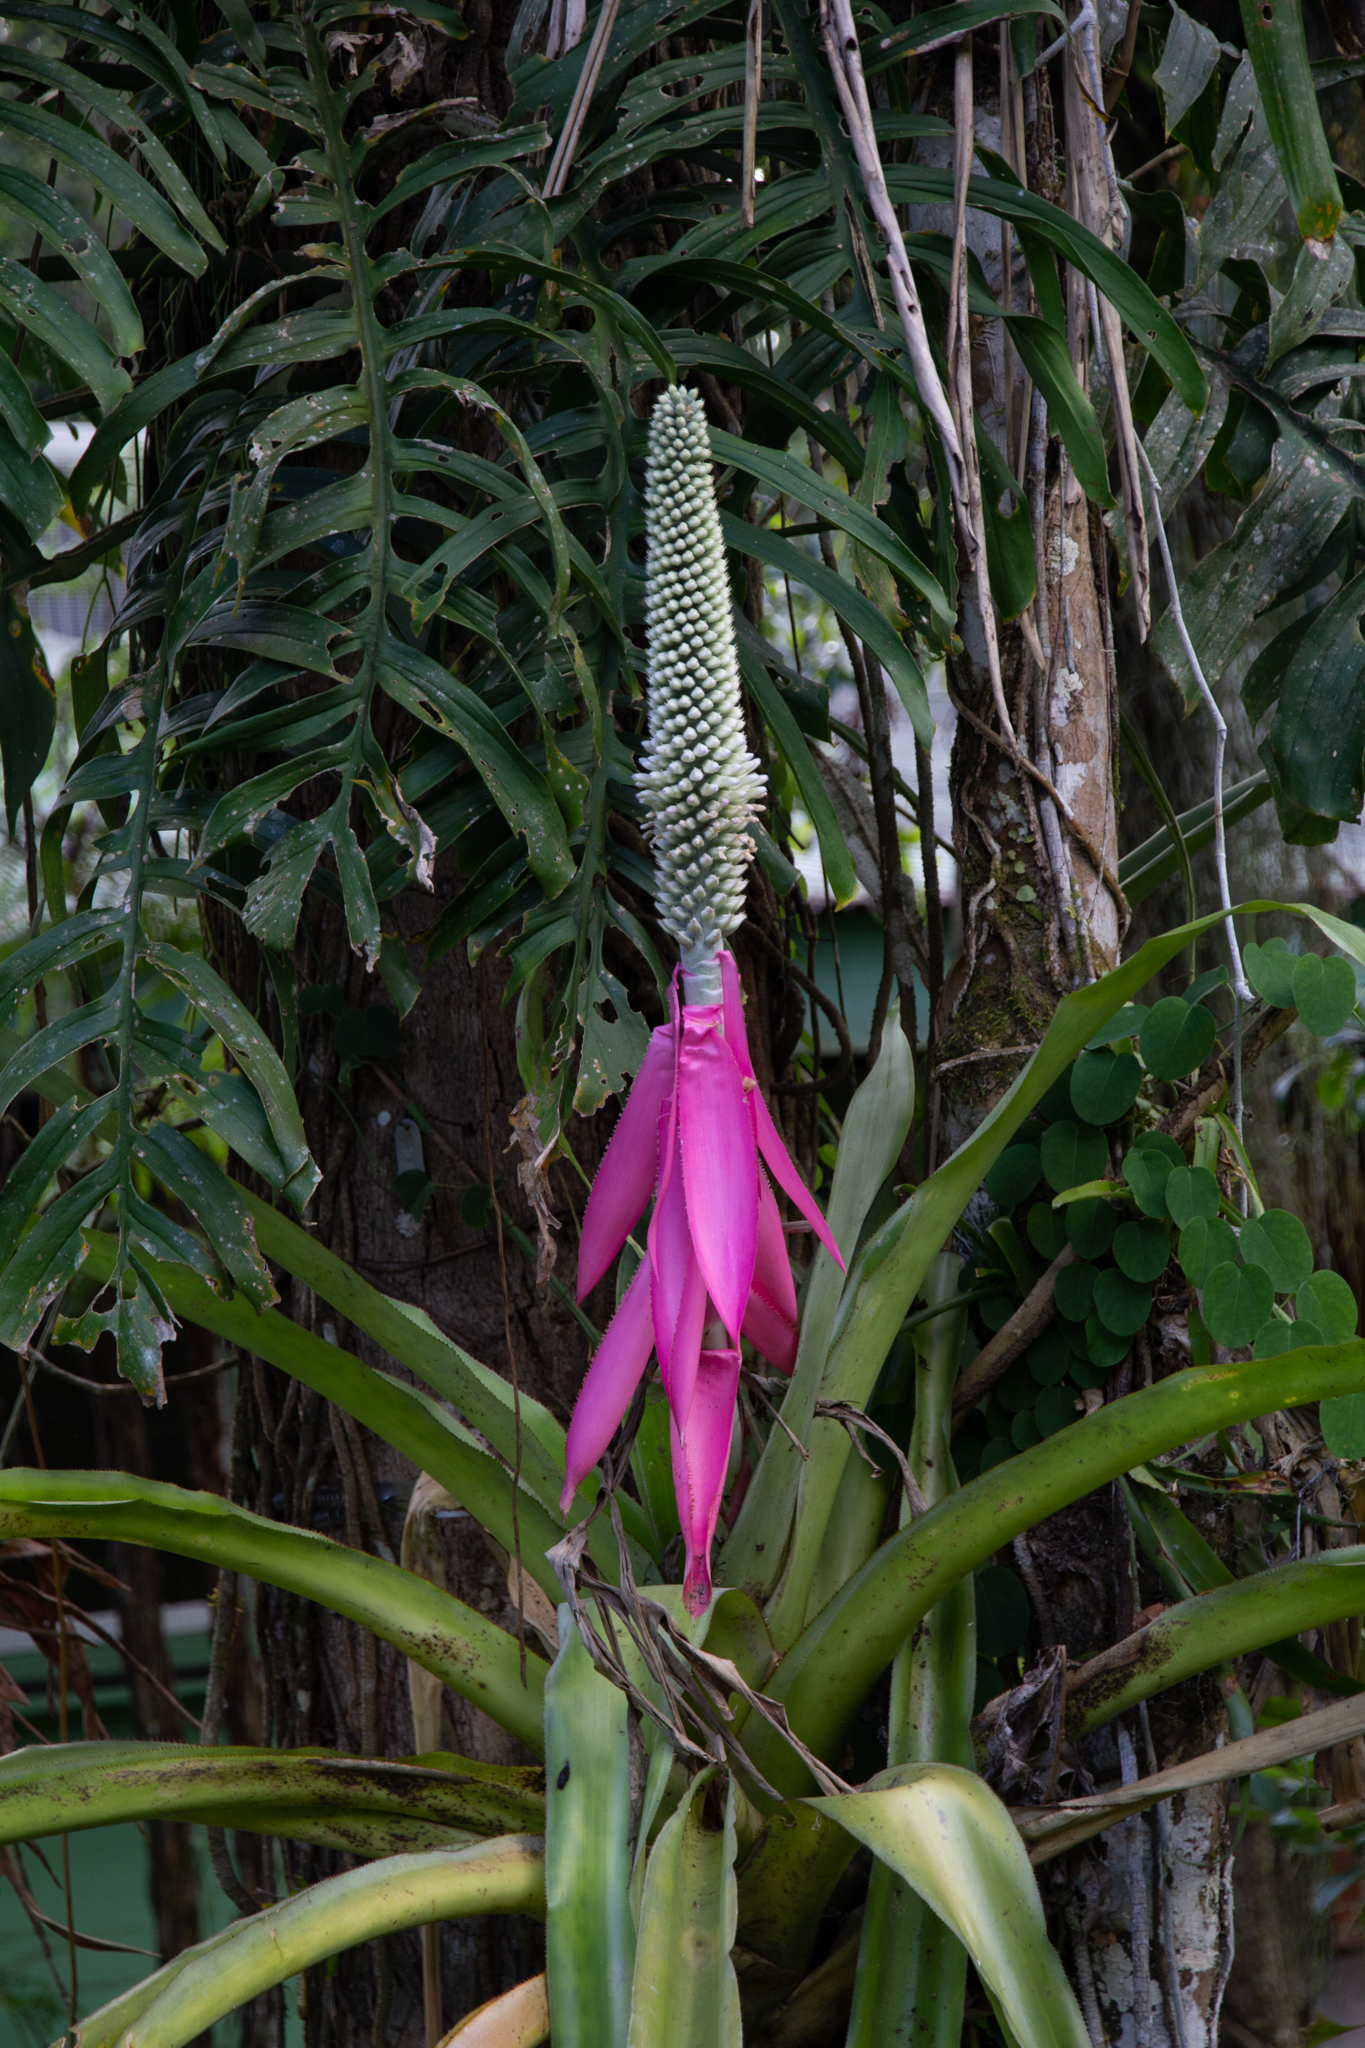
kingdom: Plantae
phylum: Tracheophyta
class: Liliopsida
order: Poales
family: Bromeliaceae
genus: Aechmea
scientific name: Aechmea mariae-reginae
